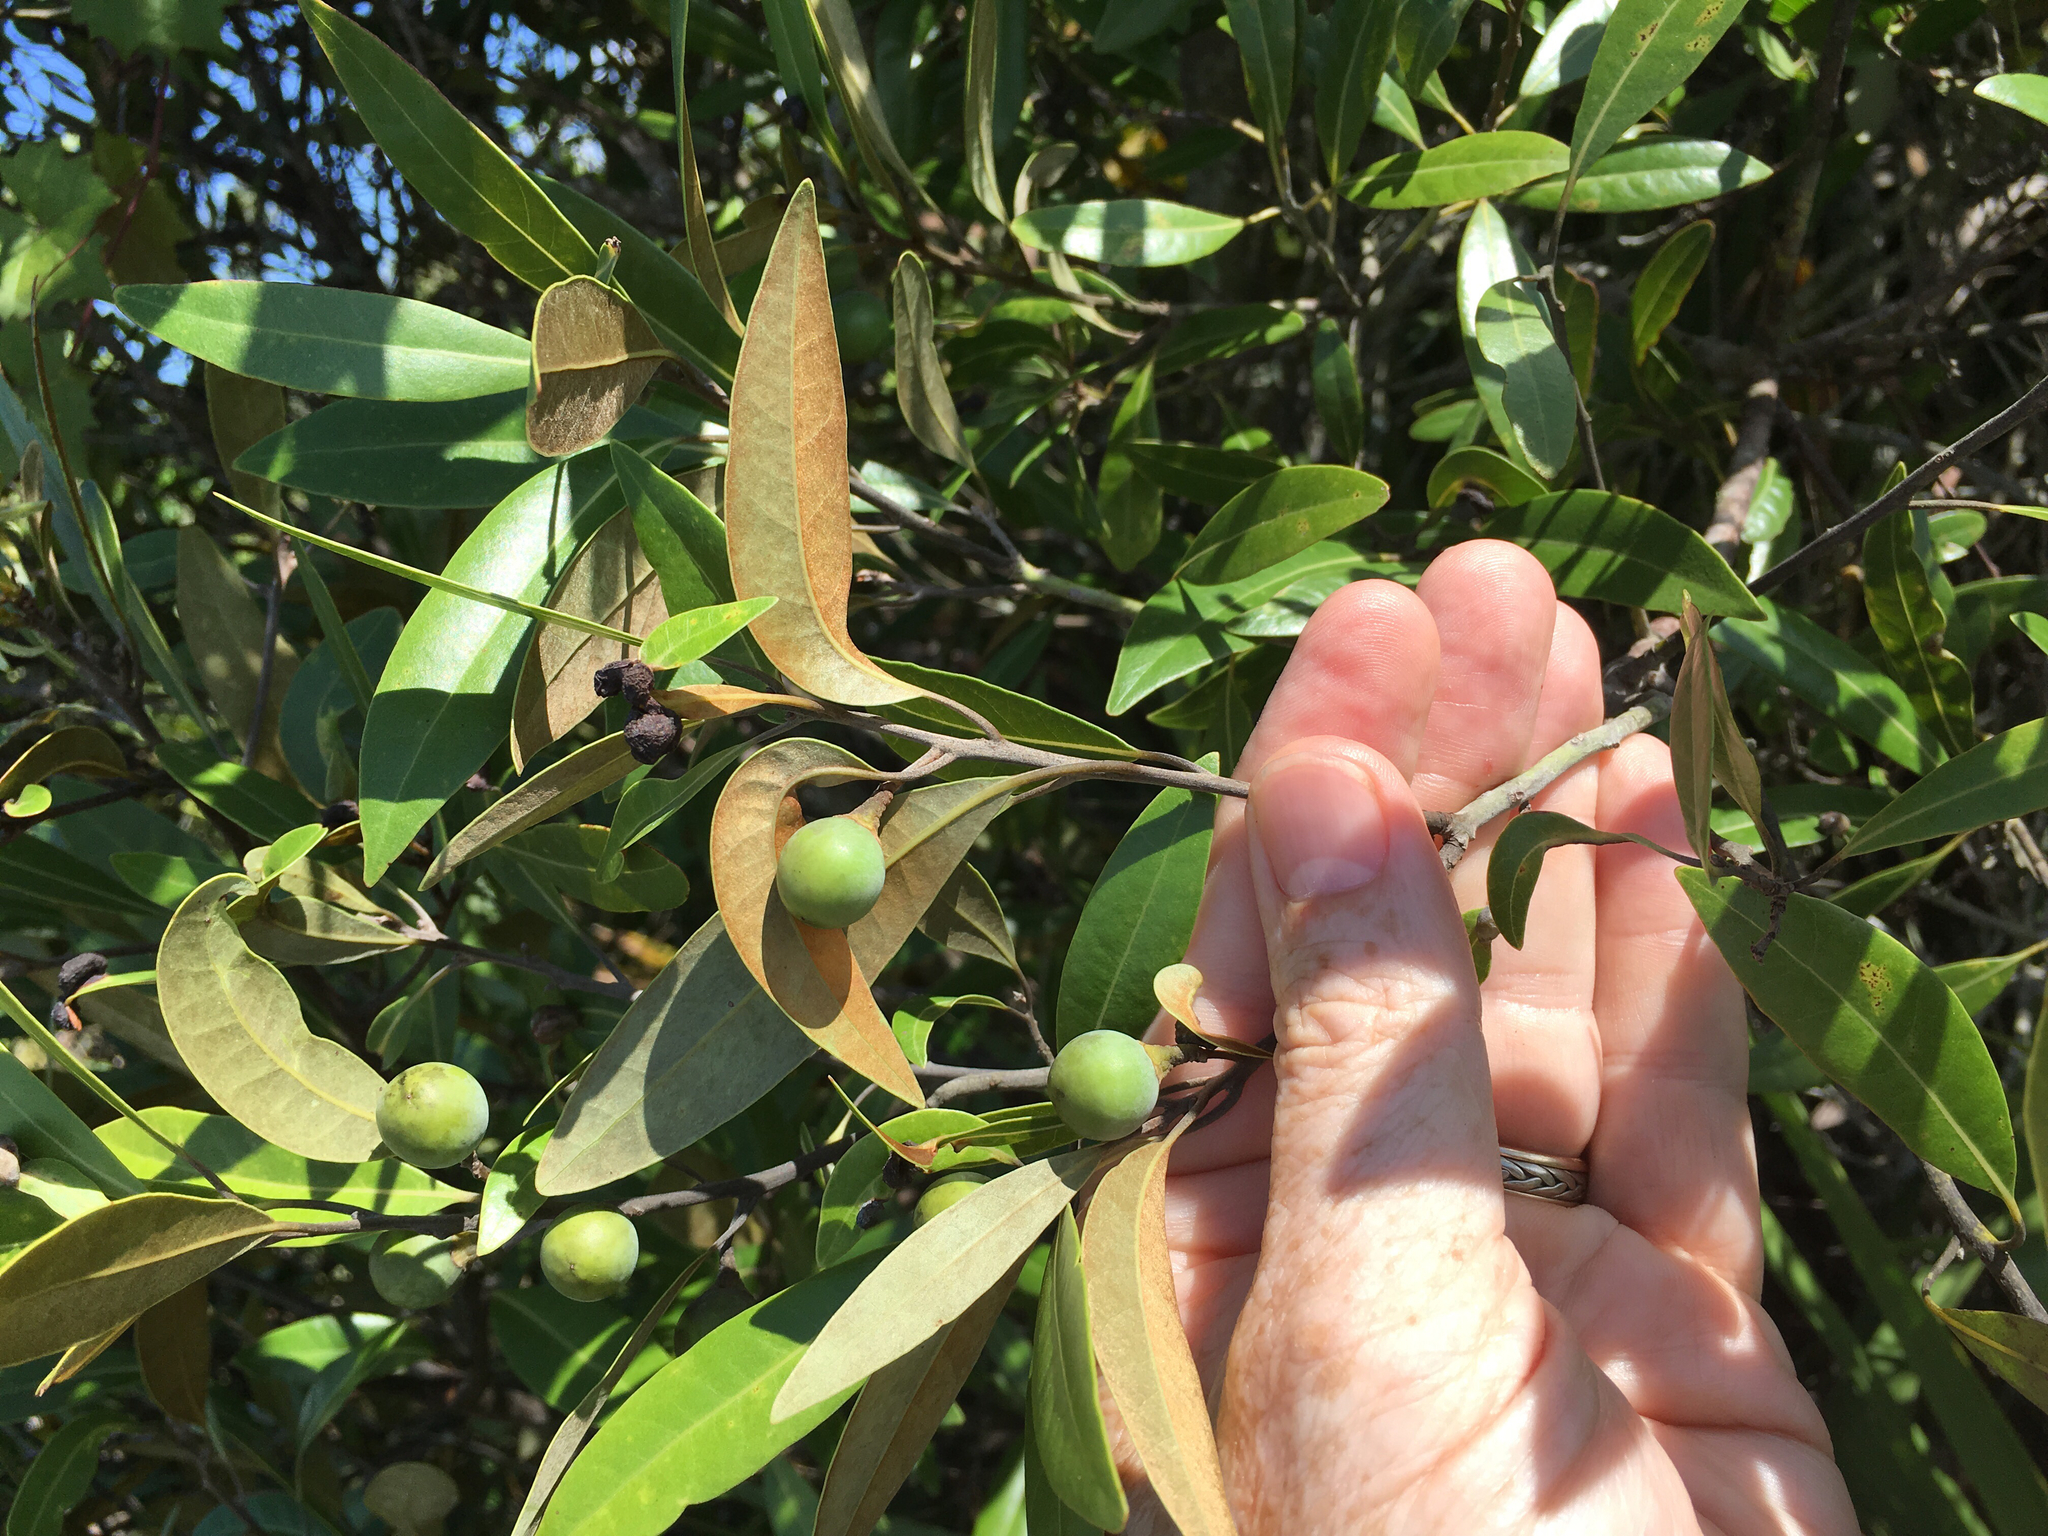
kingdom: Plantae
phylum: Tracheophyta
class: Magnoliopsida
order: Laurales
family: Lauraceae
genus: Persea
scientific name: Persea humilis
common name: Silkbay
